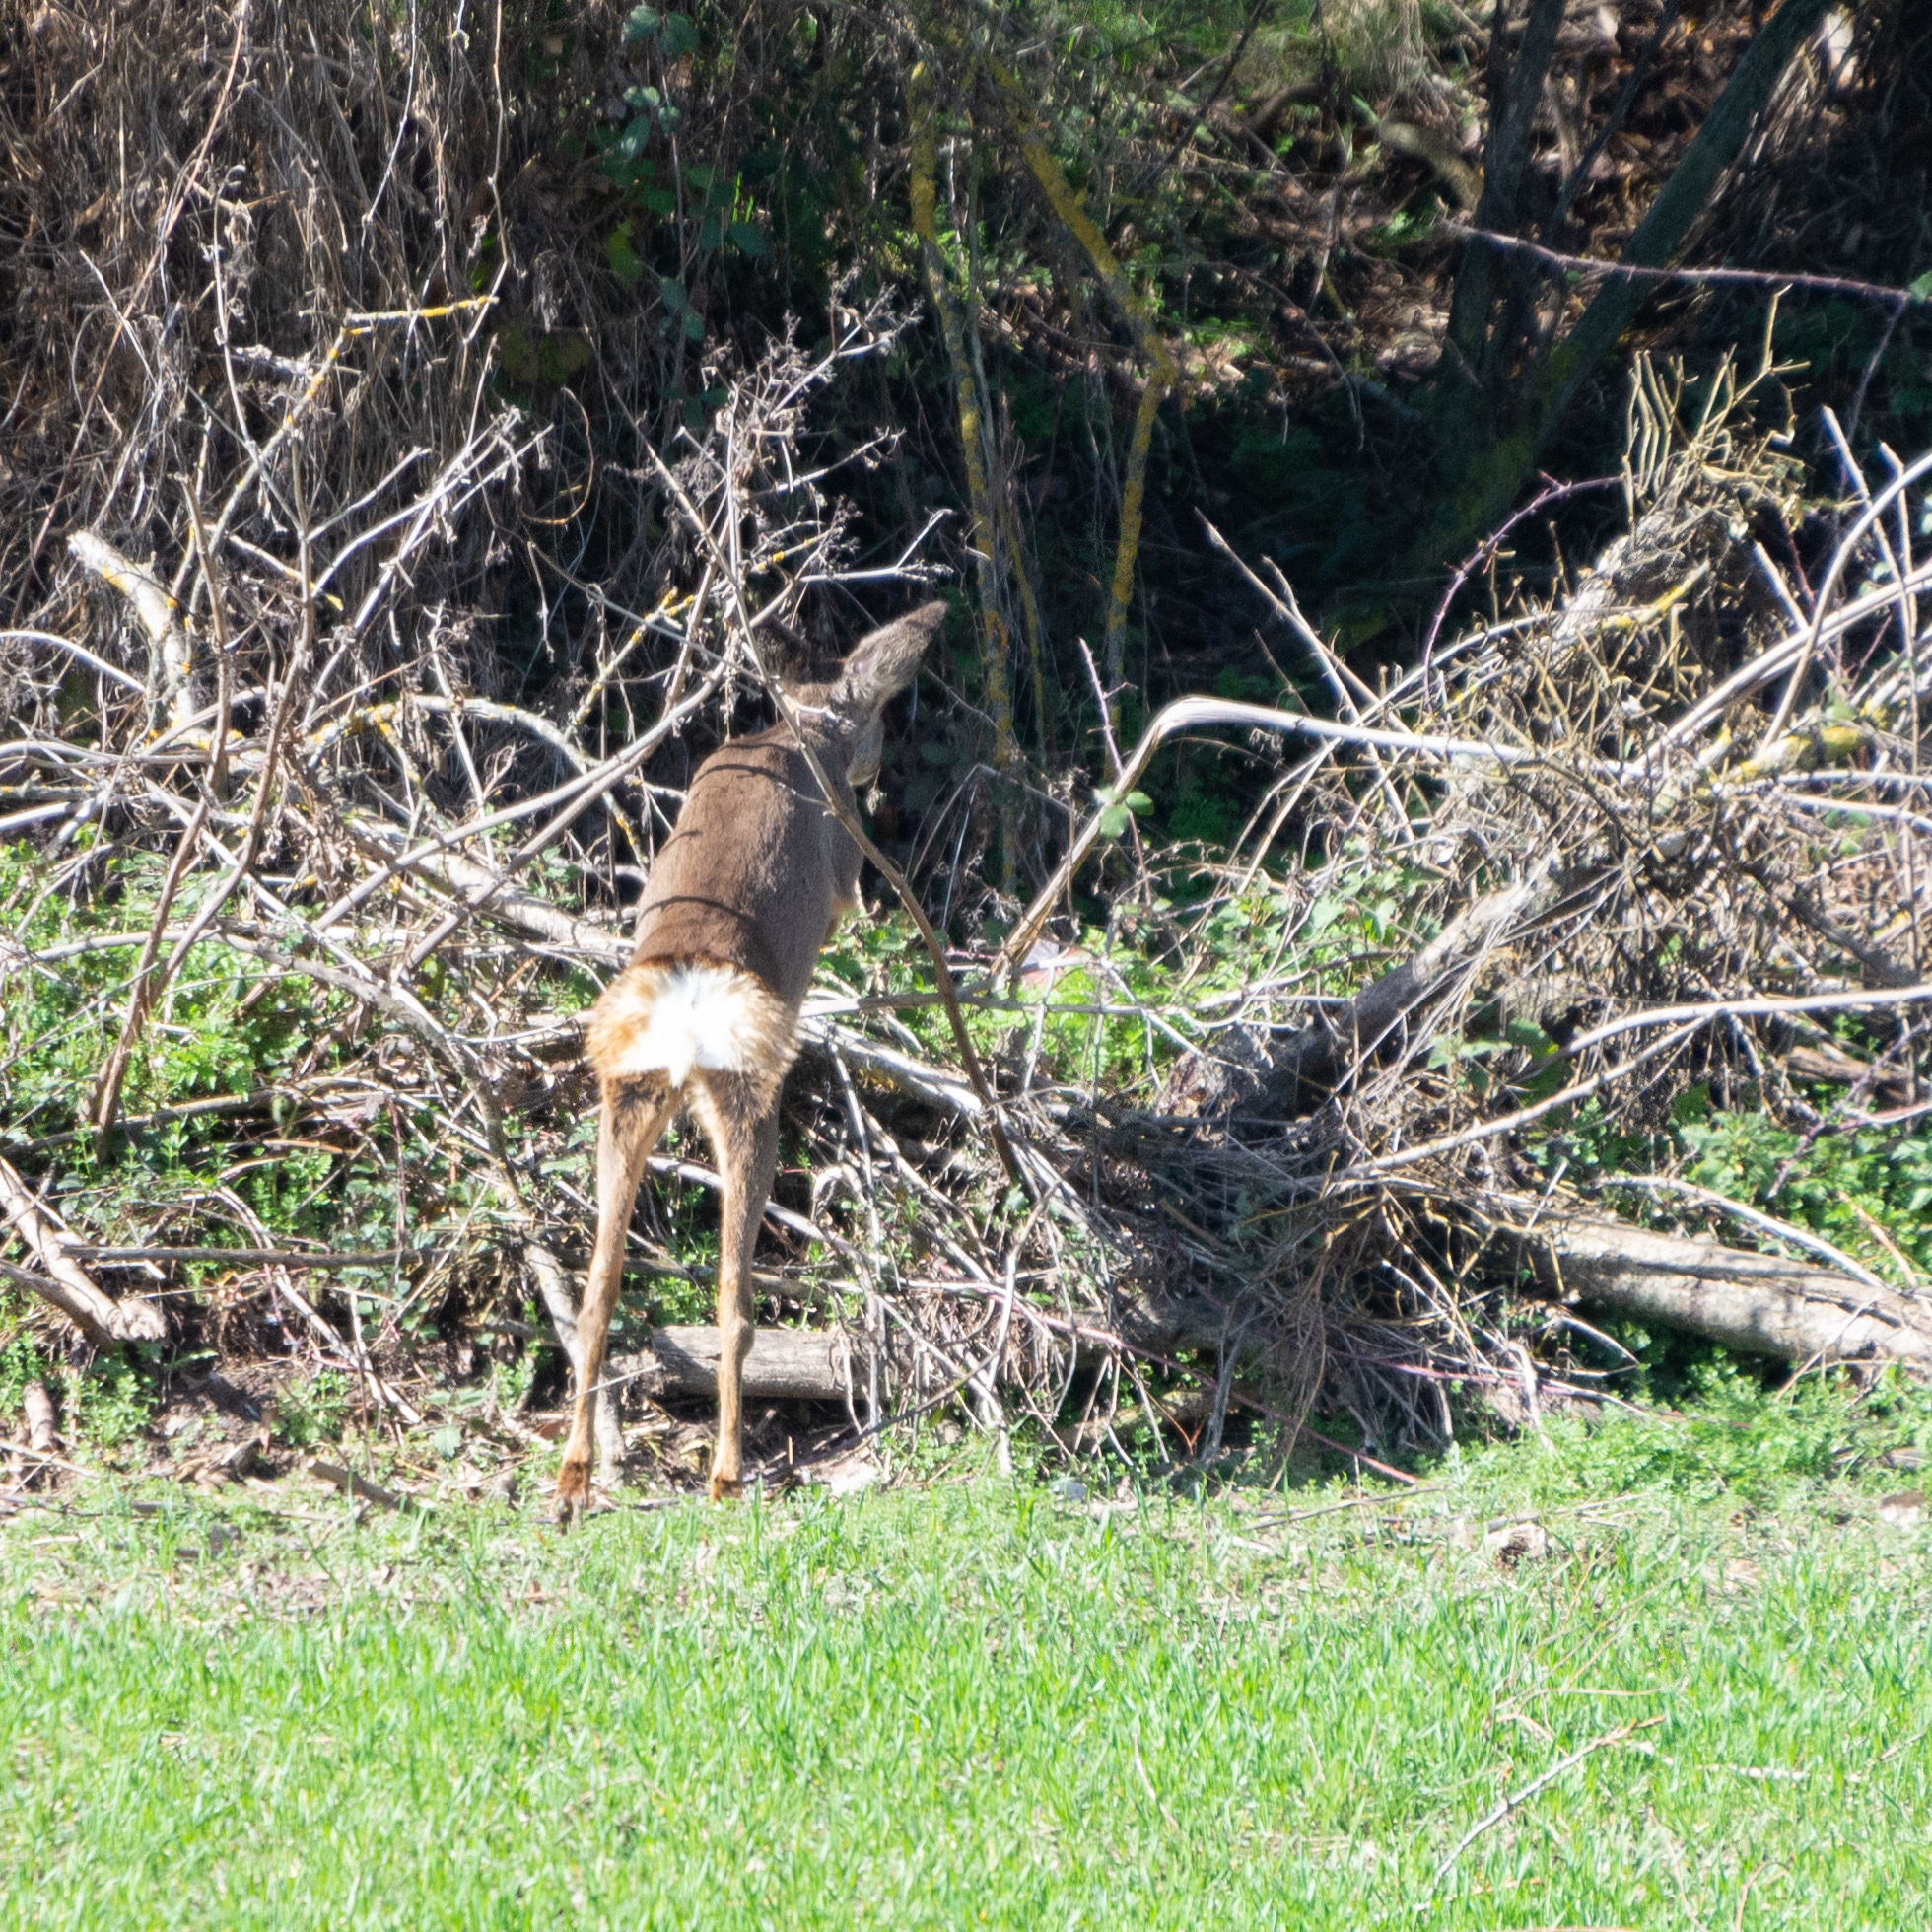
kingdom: Animalia
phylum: Chordata
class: Mammalia
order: Artiodactyla
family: Cervidae
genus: Capreolus
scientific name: Capreolus capreolus
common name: Western roe deer
